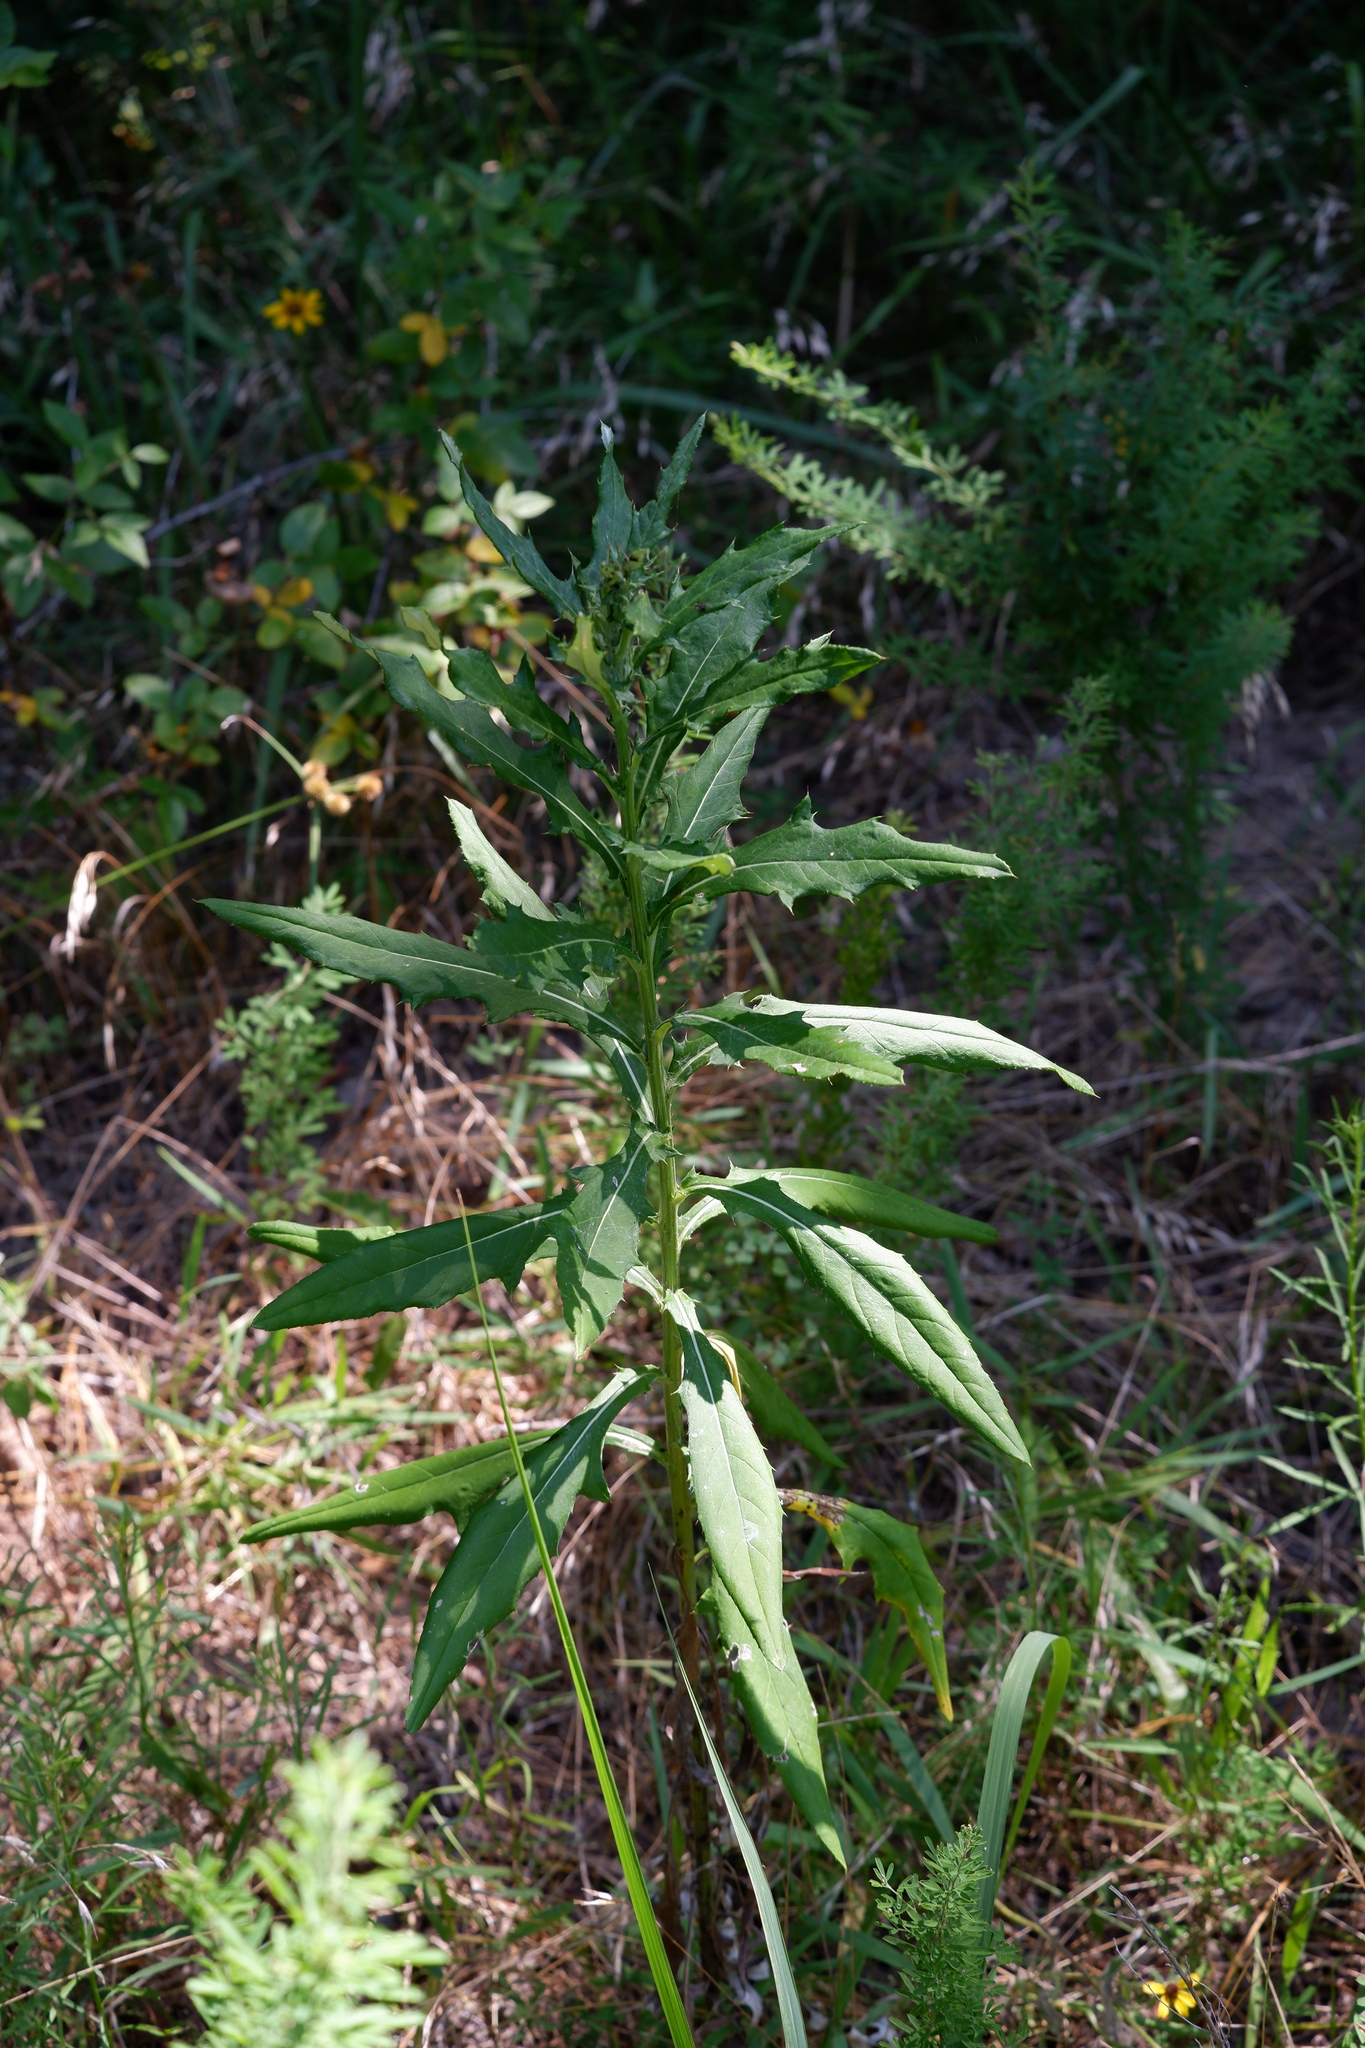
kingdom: Plantae
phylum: Tracheophyta
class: Magnoliopsida
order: Asterales
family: Asteraceae
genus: Cirsium
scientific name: Cirsium altissimum
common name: Roadside thistle
